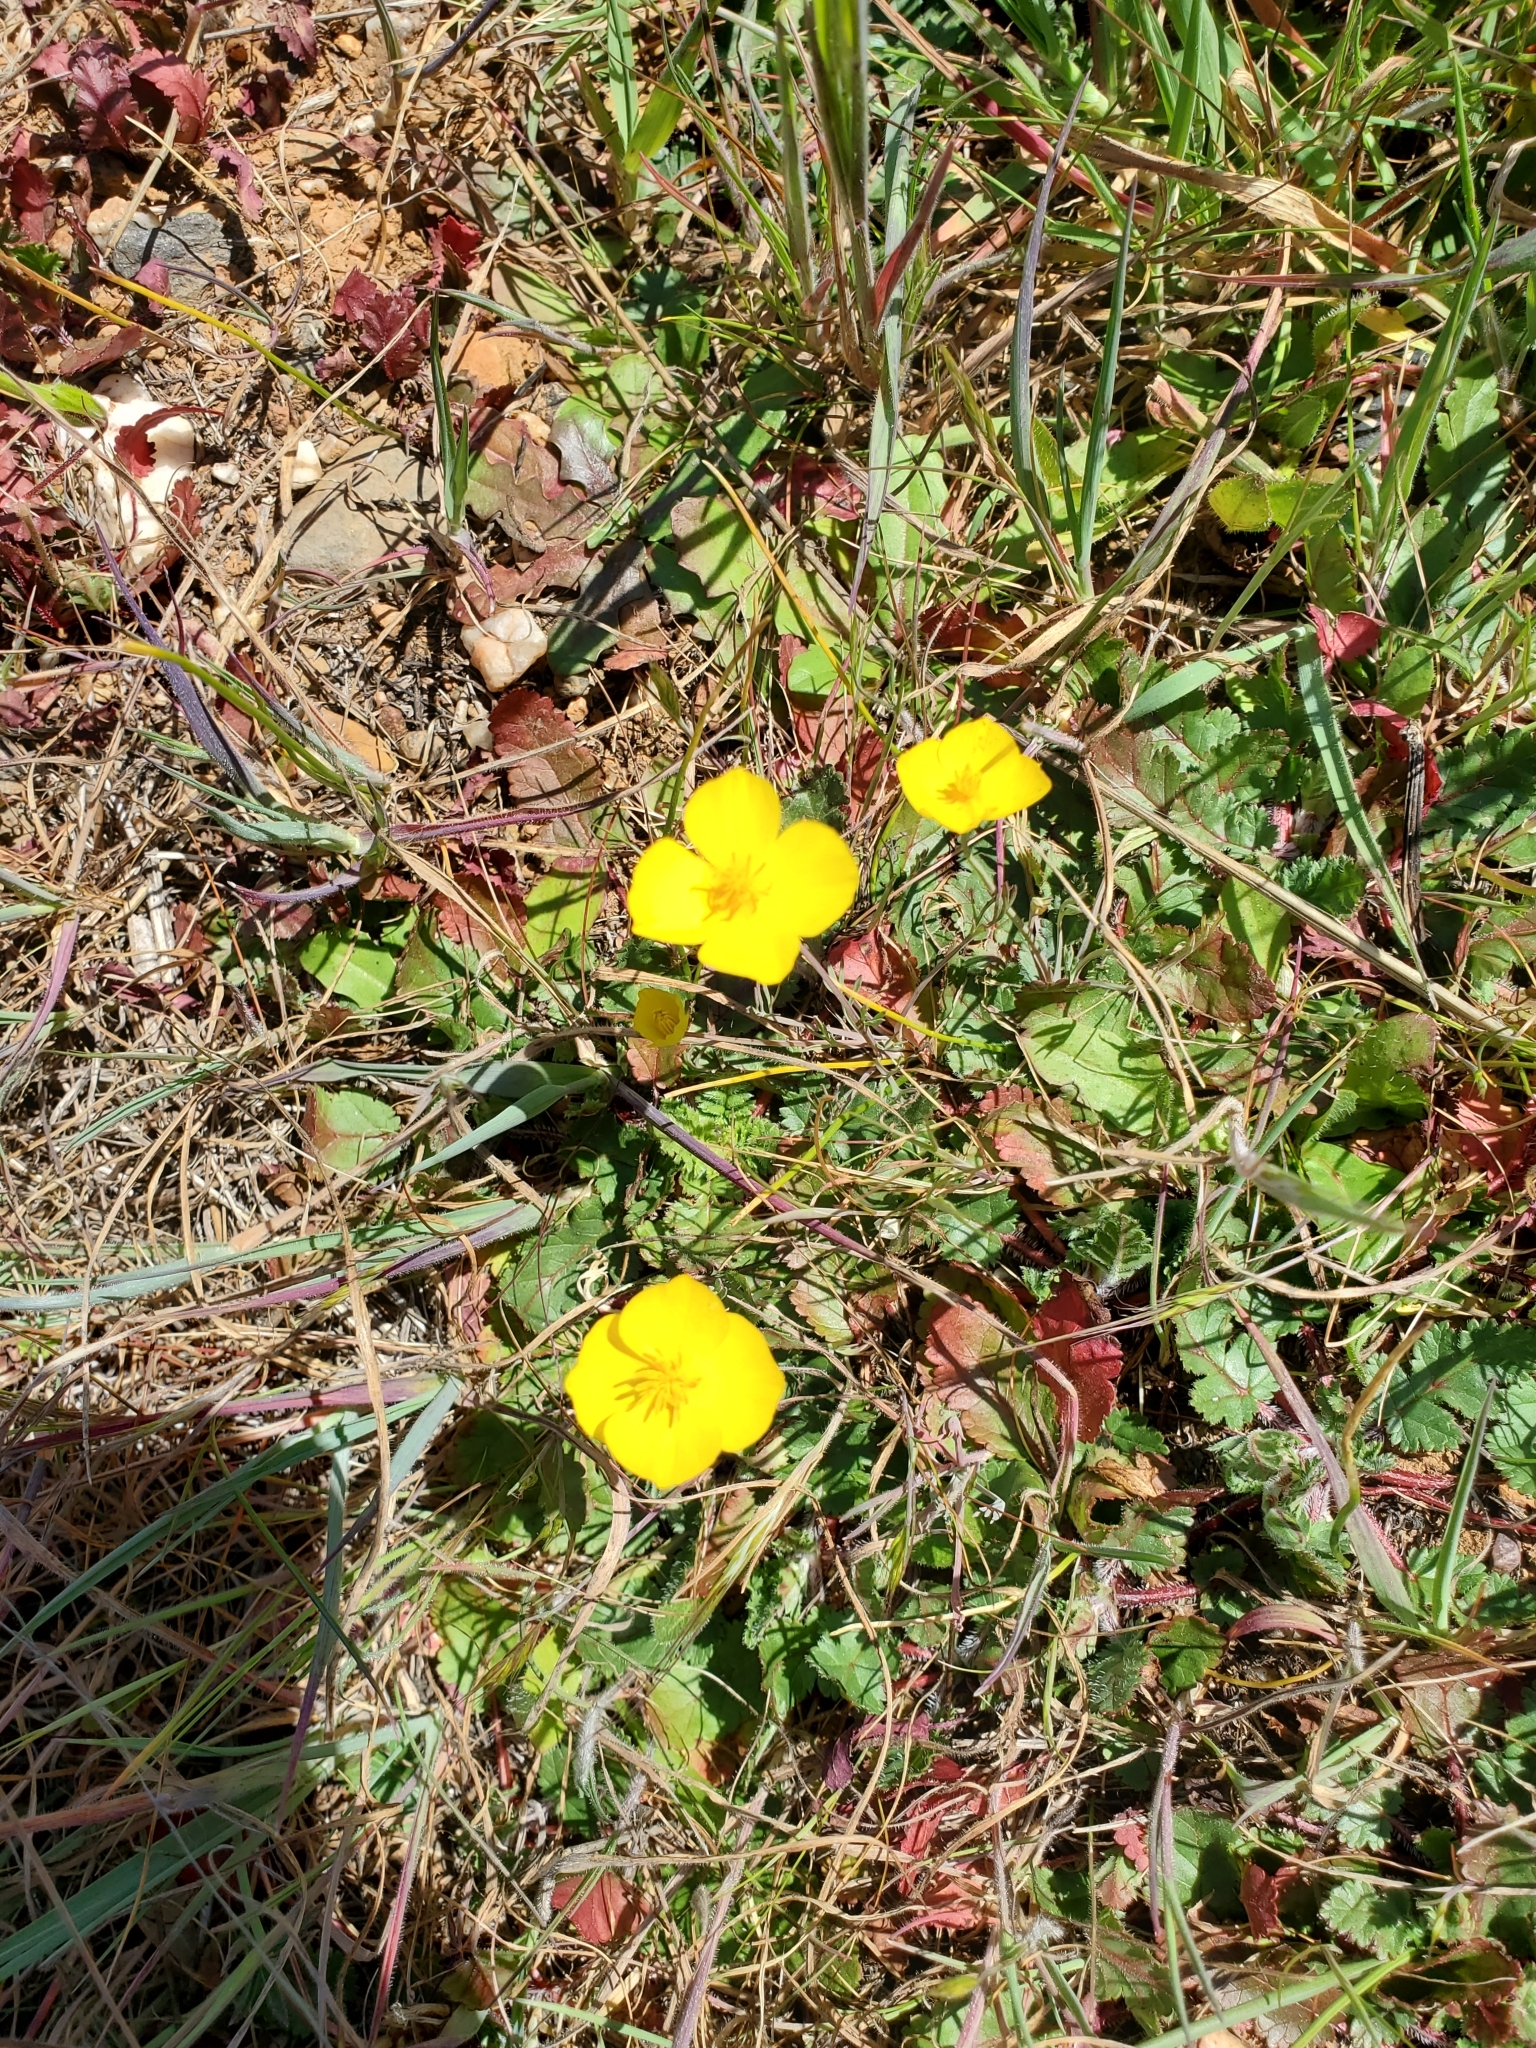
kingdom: Plantae
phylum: Tracheophyta
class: Magnoliopsida
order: Ranunculales
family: Papaveraceae
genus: Eschscholzia
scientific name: Eschscholzia lobbii
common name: Frying-pans
